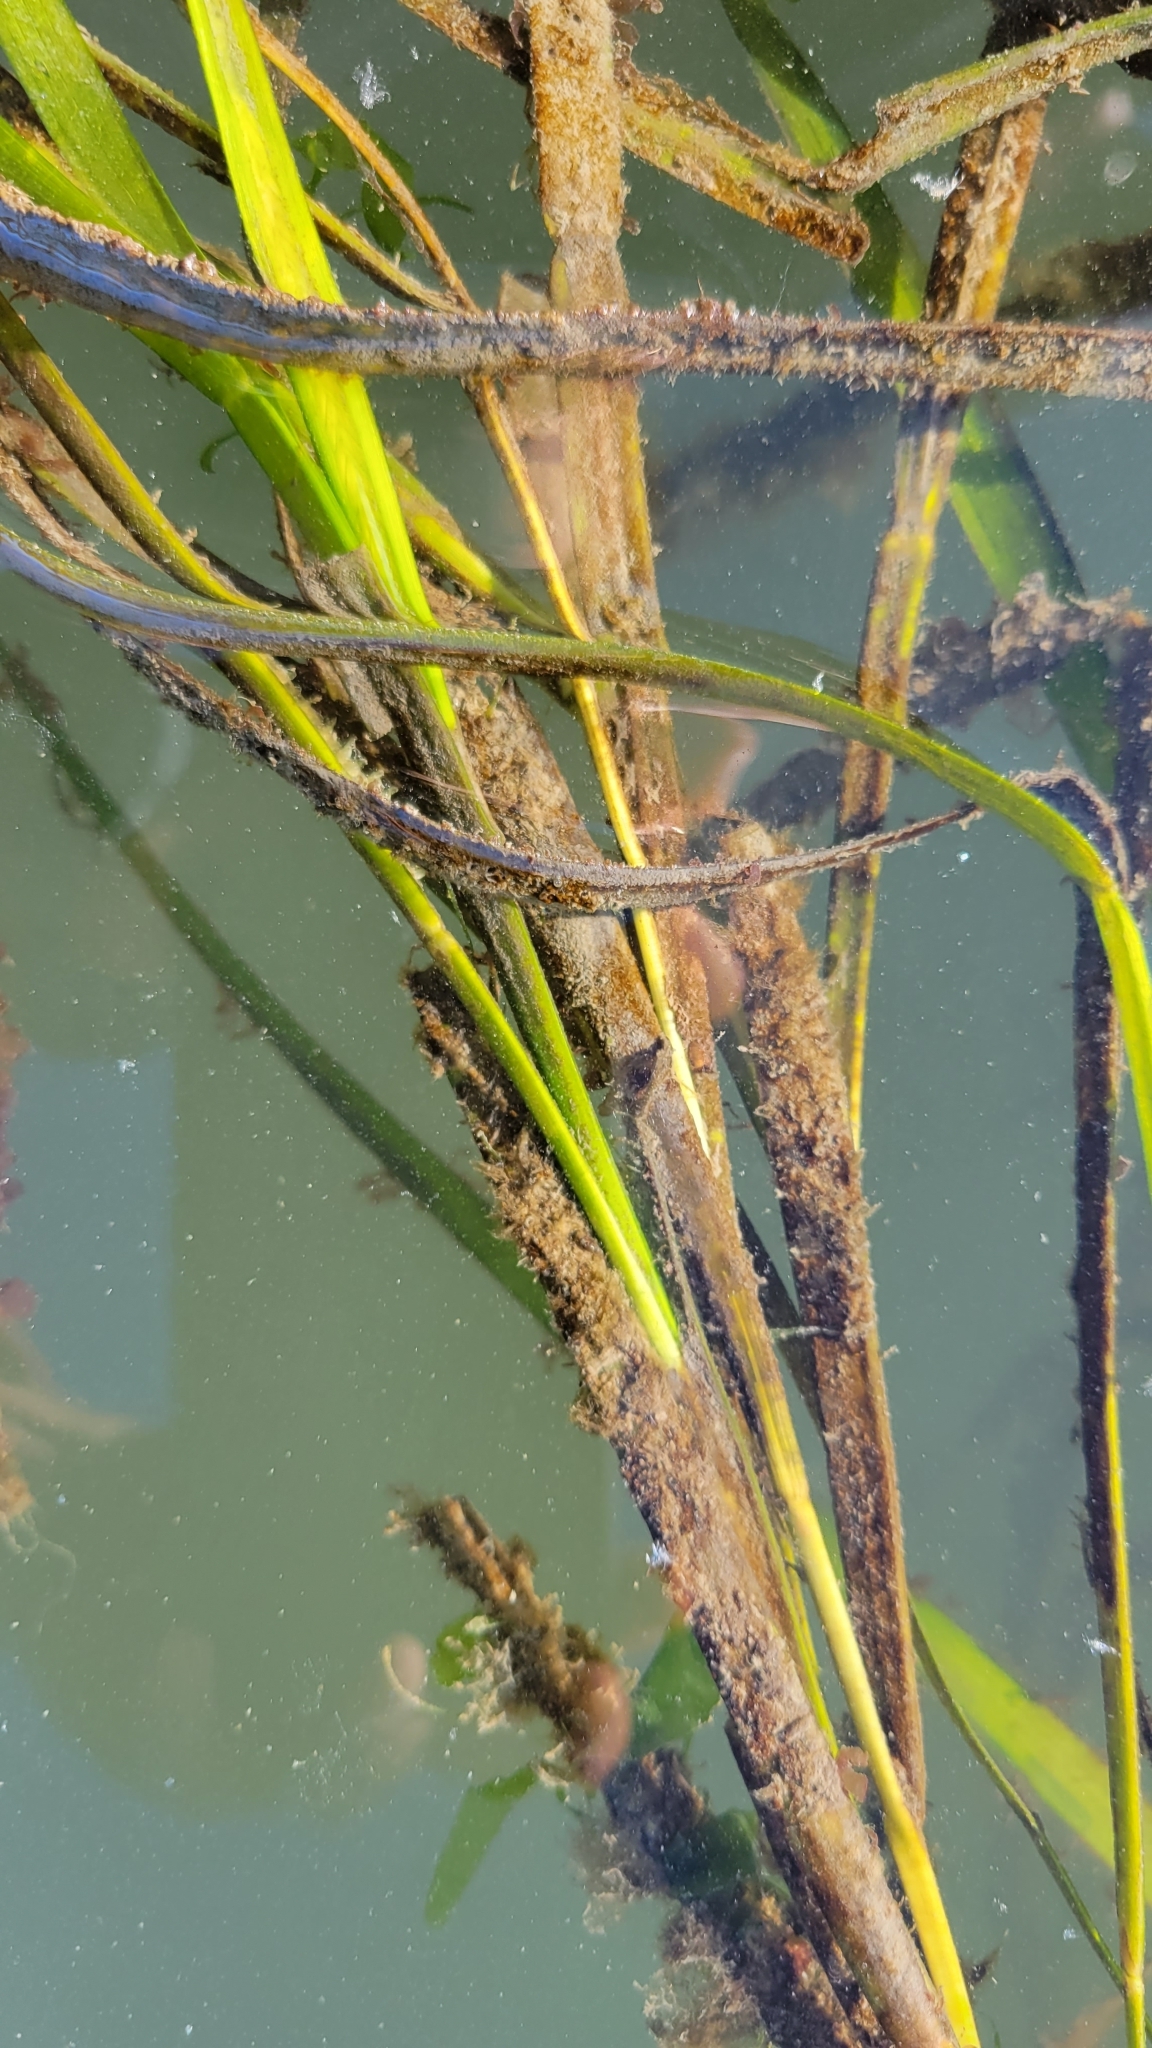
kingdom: Plantae
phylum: Tracheophyta
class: Liliopsida
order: Alismatales
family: Zosteraceae
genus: Zostera
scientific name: Zostera marina
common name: Eelgrass
